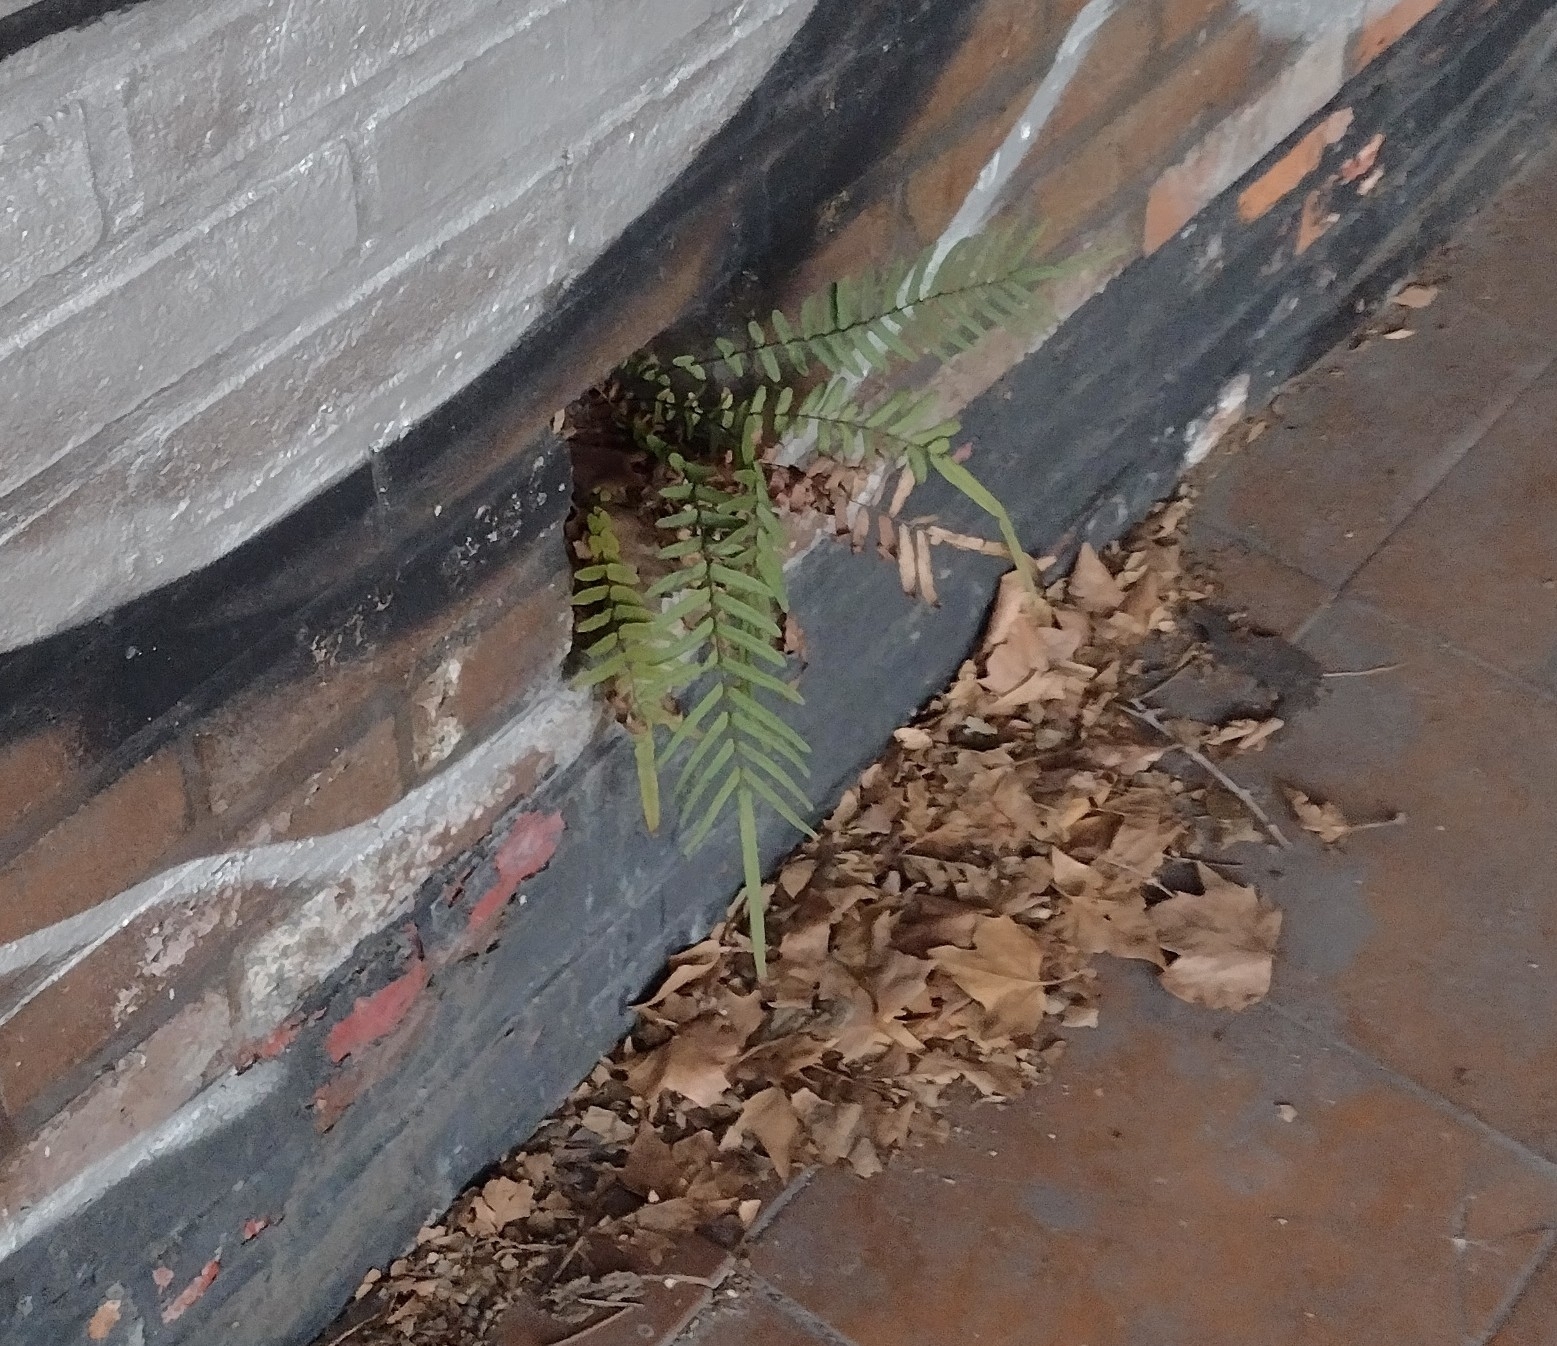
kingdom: Plantae
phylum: Tracheophyta
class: Polypodiopsida
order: Polypodiales
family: Pteridaceae
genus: Pteris
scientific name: Pteris vittata
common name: Ladder brake
